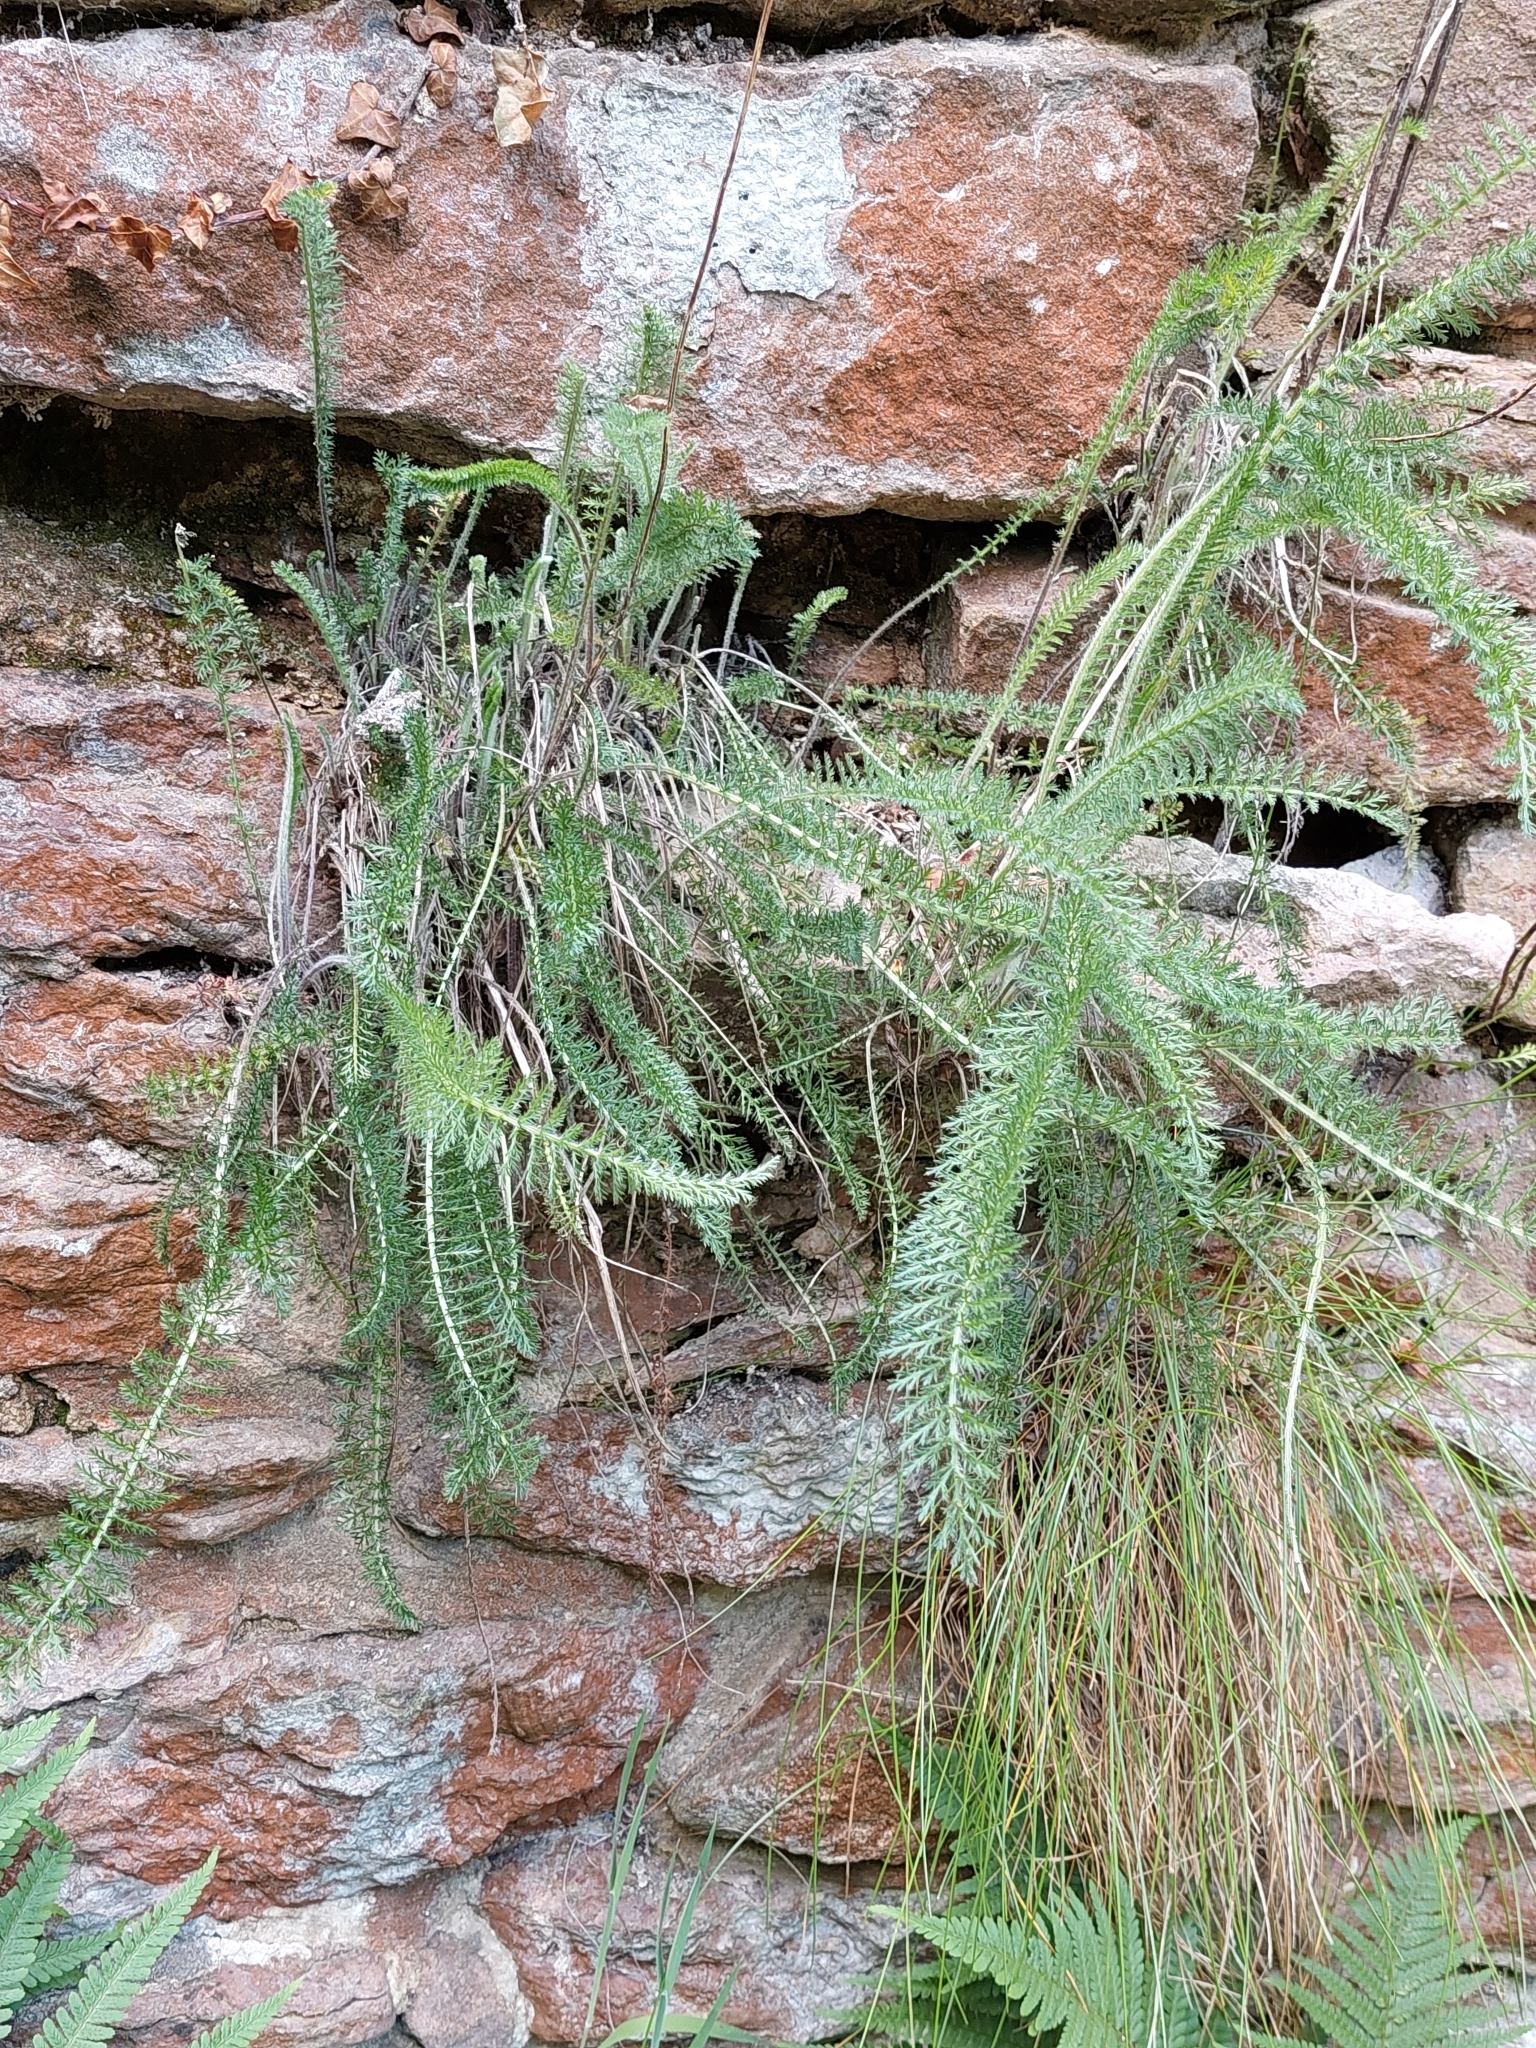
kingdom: Plantae
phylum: Tracheophyta
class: Magnoliopsida
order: Asterales
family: Asteraceae
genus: Achillea
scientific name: Achillea millefolium
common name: Yarrow
